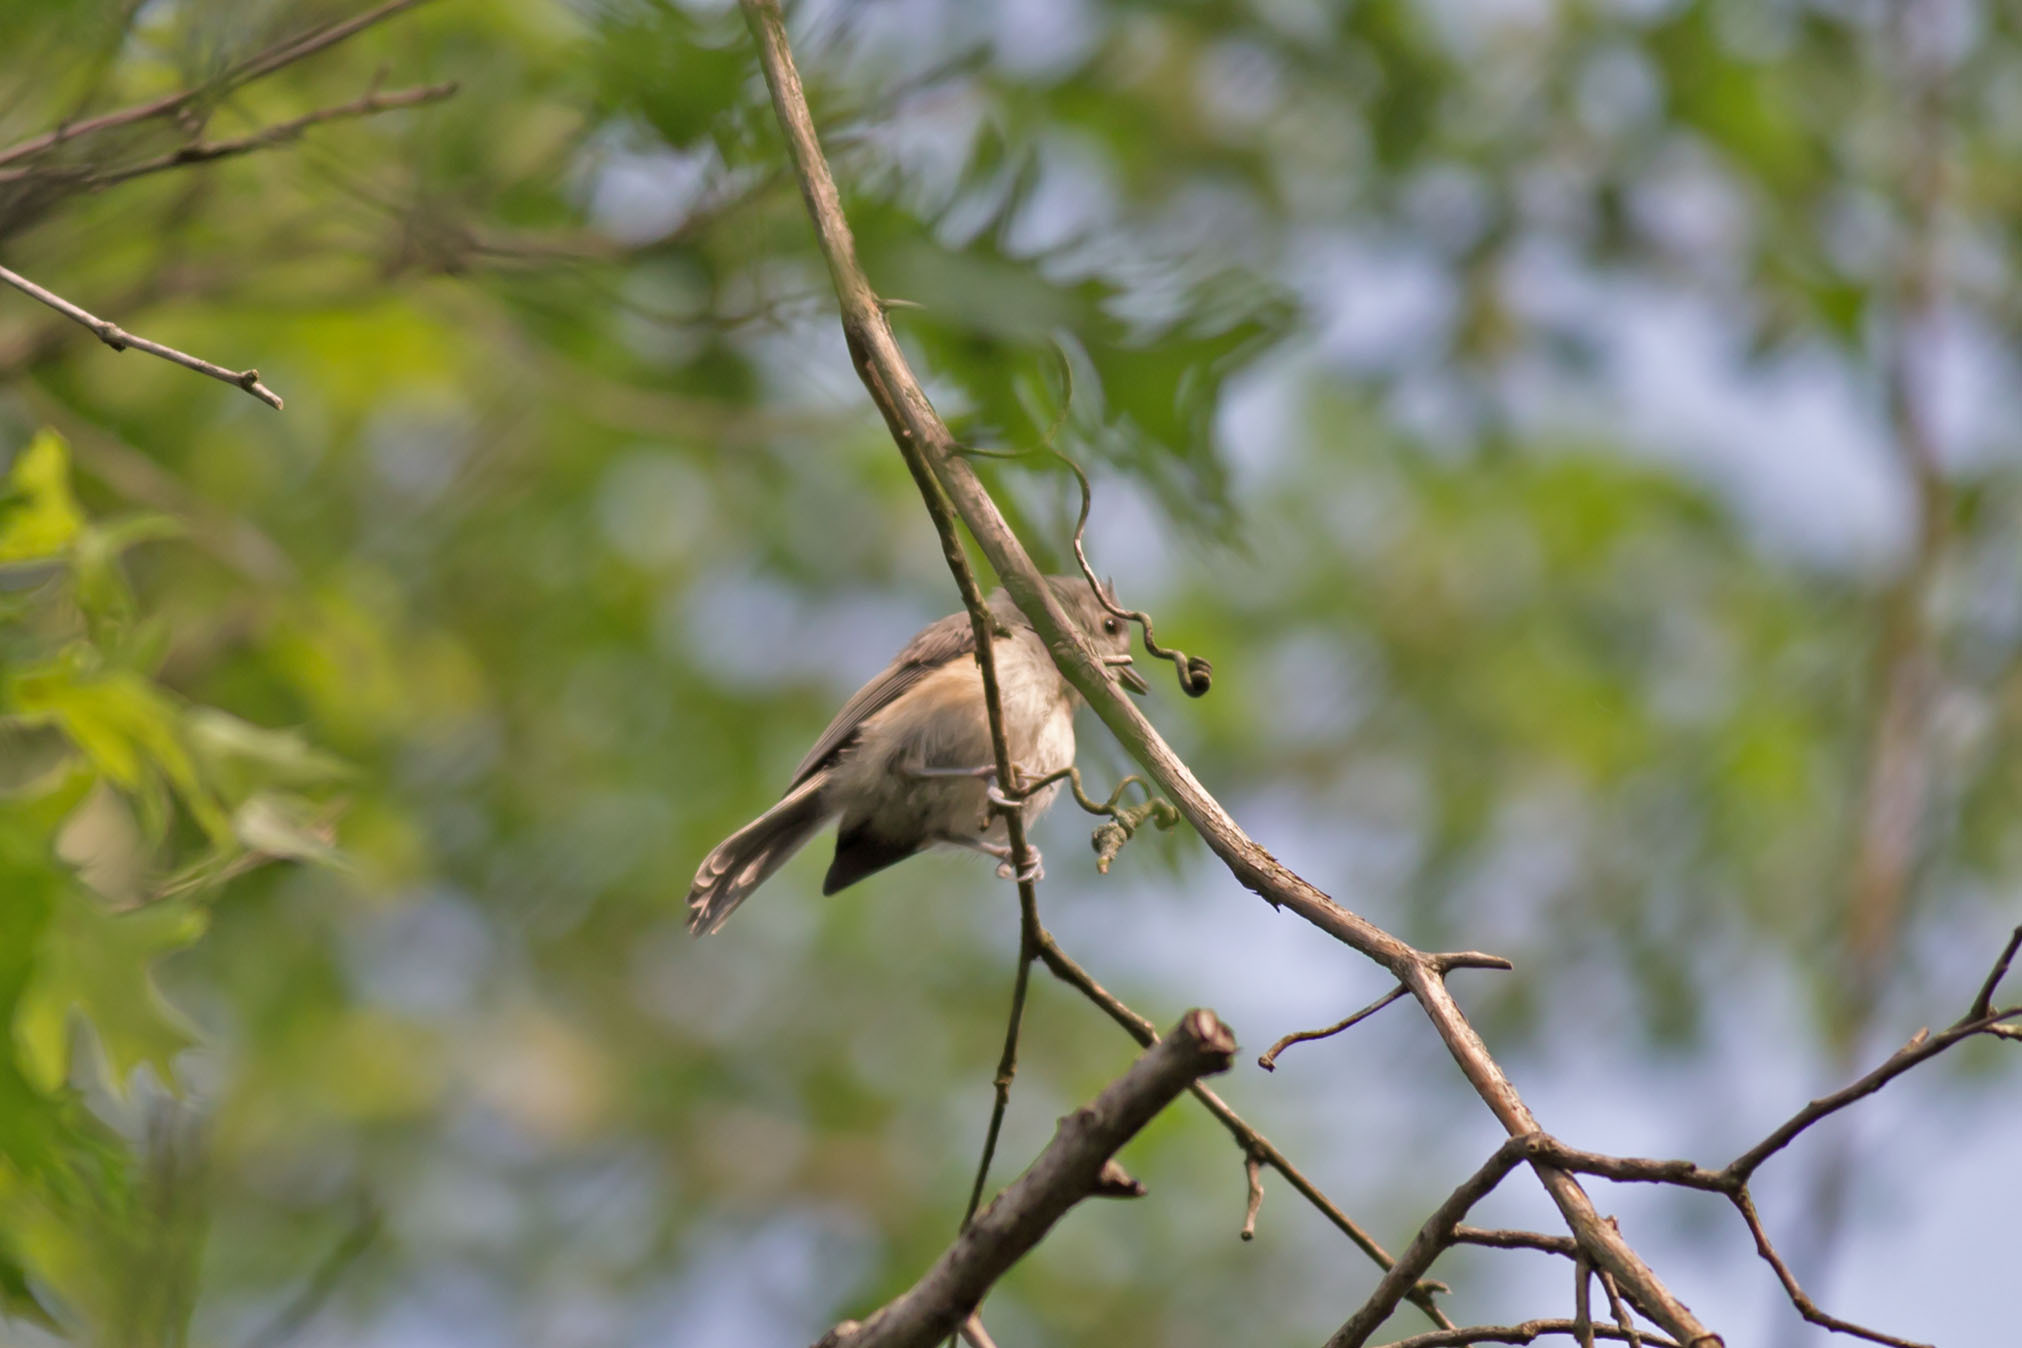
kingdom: Animalia
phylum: Chordata
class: Aves
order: Passeriformes
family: Paridae
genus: Baeolophus
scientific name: Baeolophus bicolor
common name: Tufted titmouse
